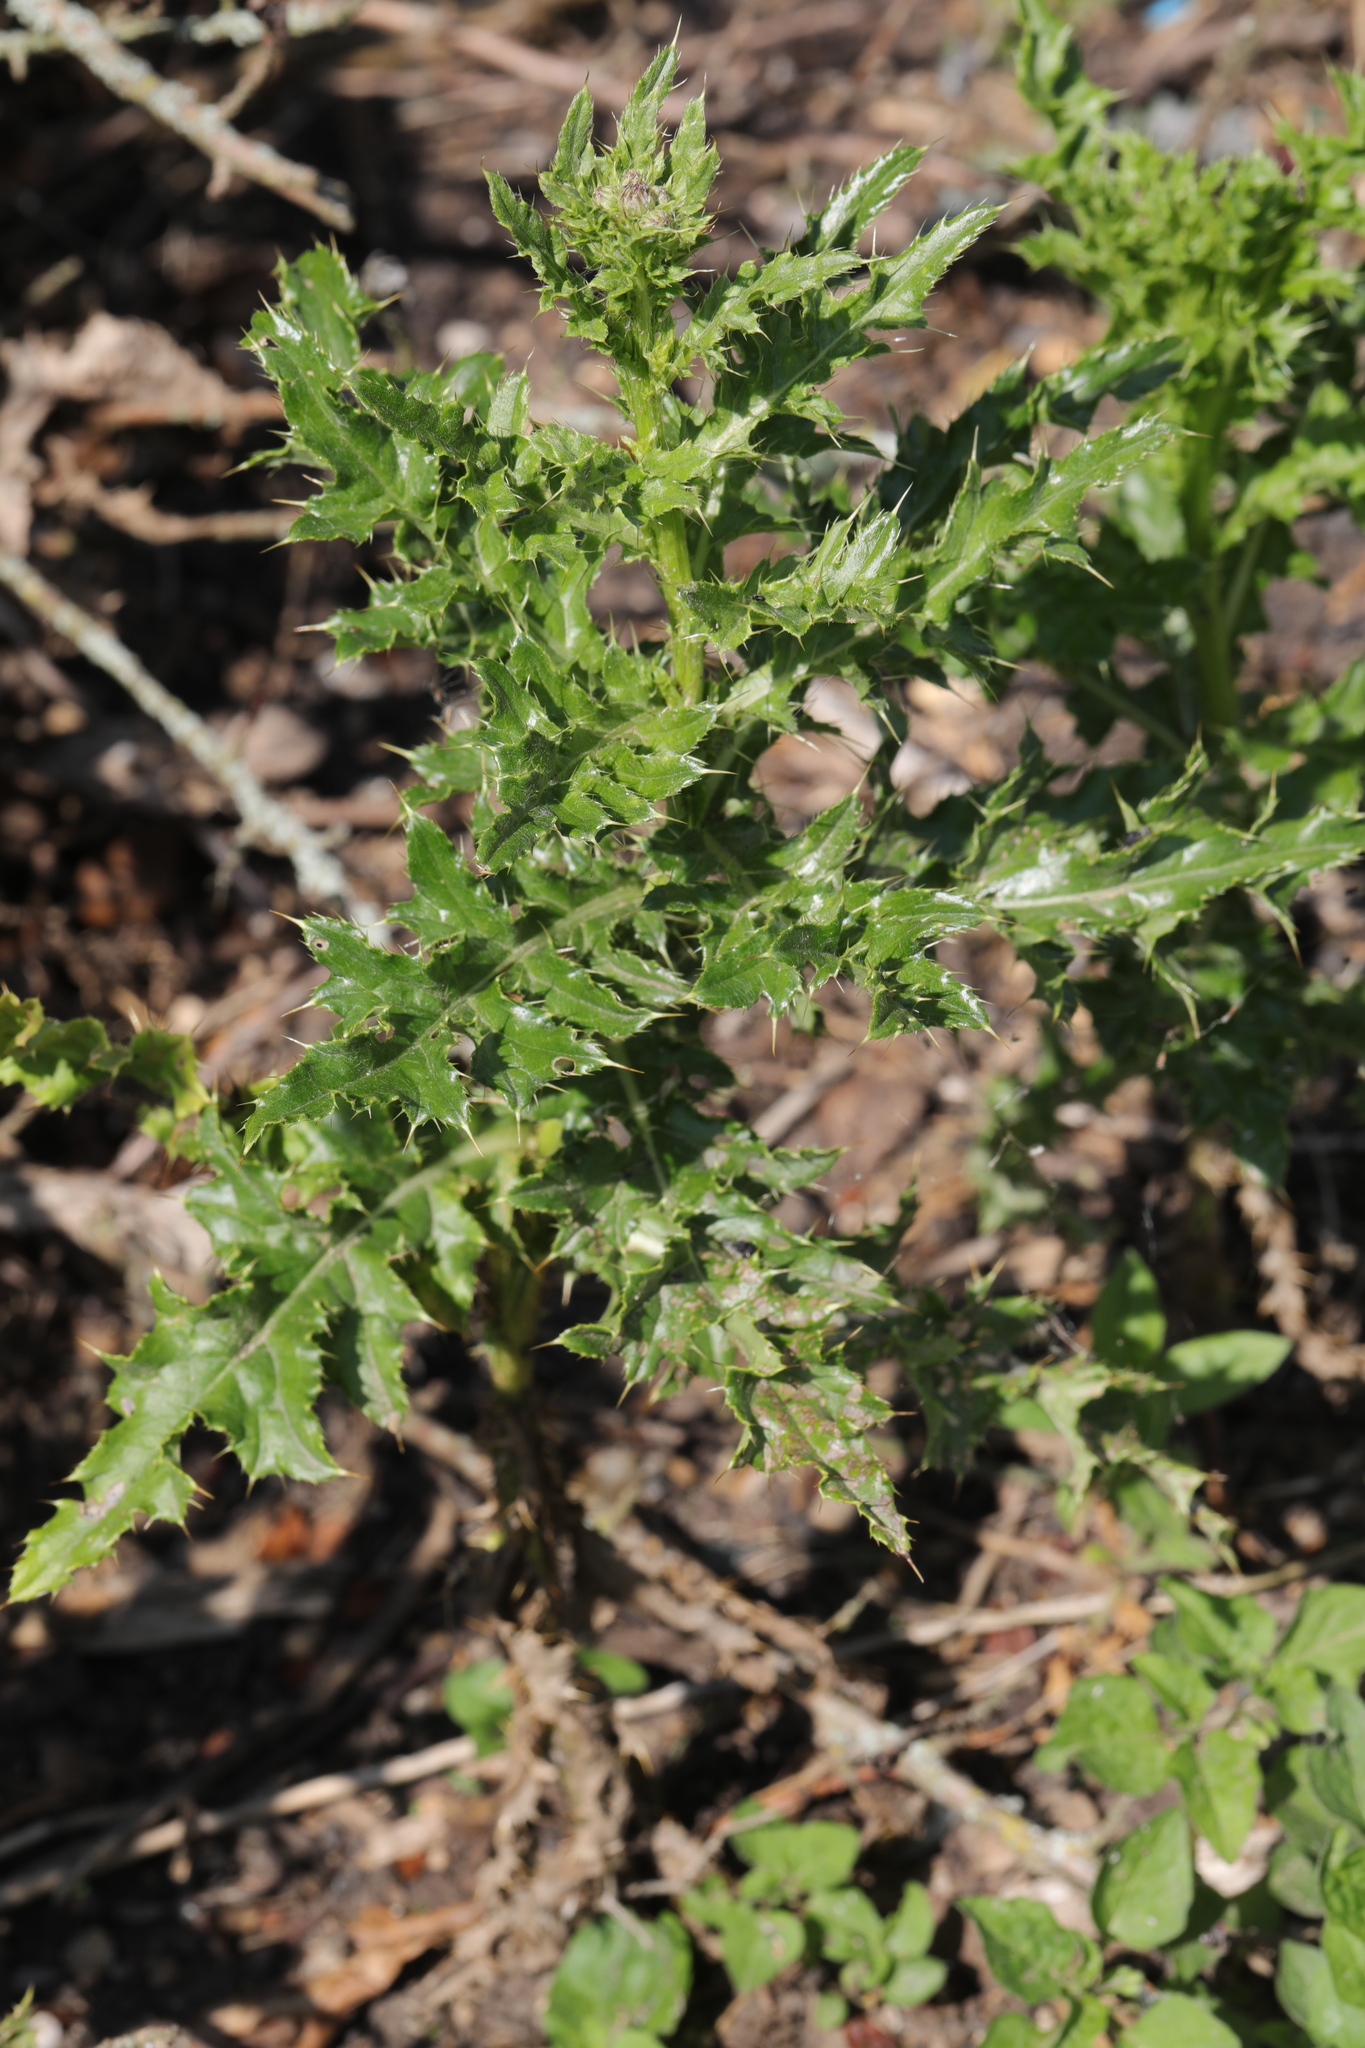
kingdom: Plantae
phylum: Tracheophyta
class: Magnoliopsida
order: Asterales
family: Asteraceae
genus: Cirsium
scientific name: Cirsium arvense
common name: Creeping thistle
